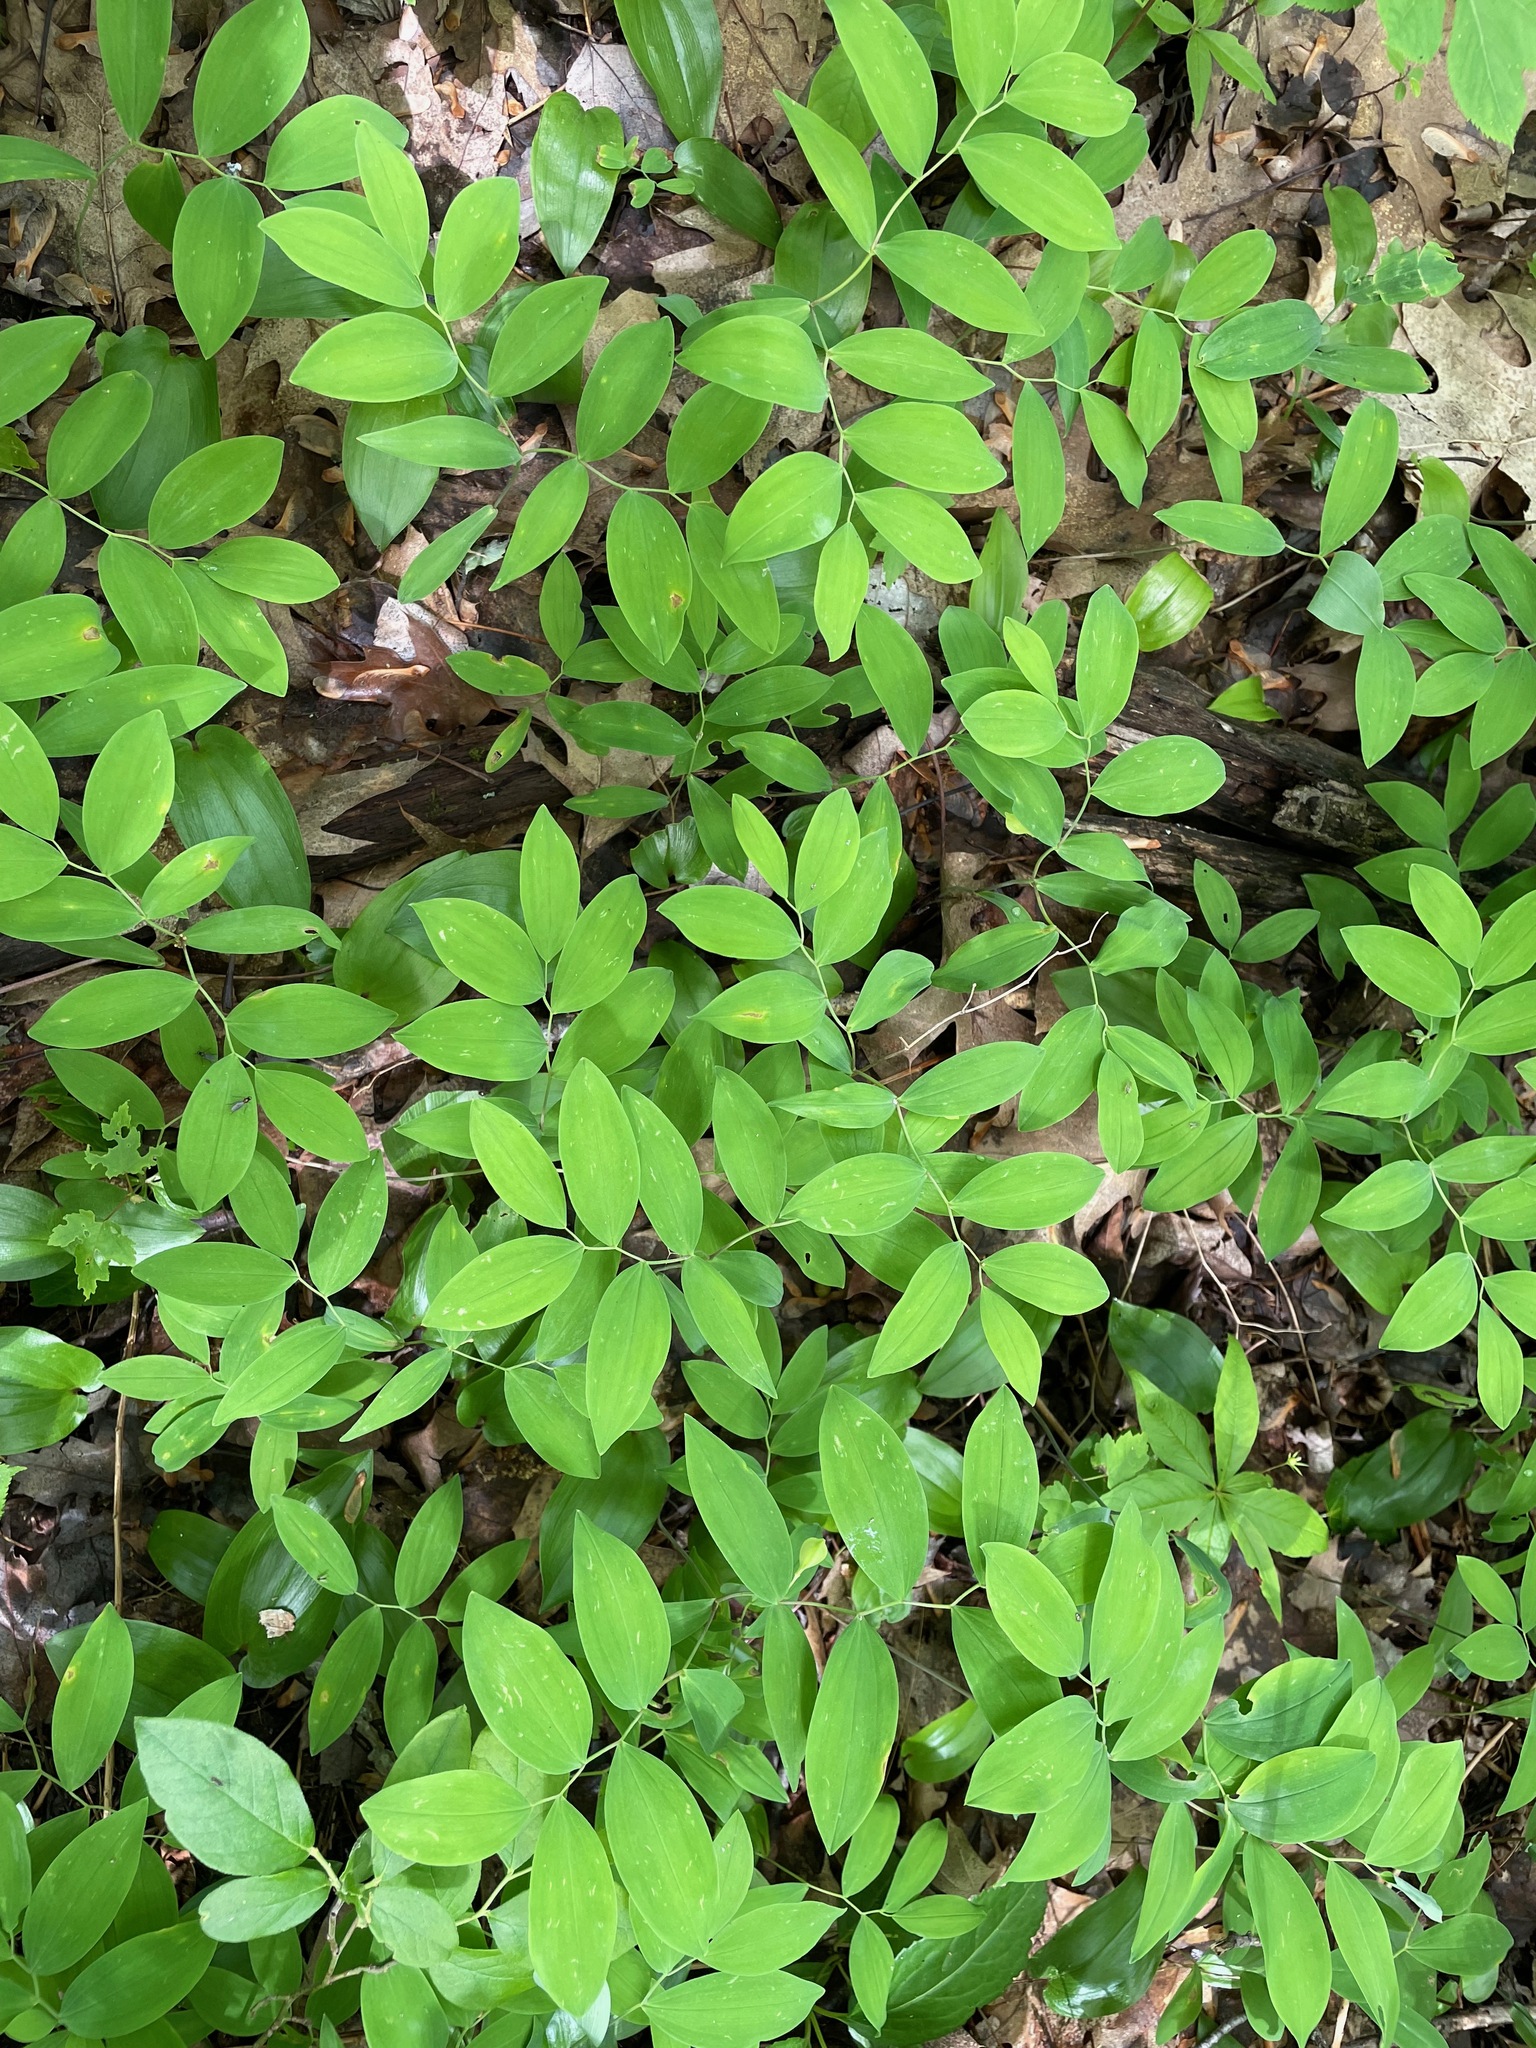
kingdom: Plantae
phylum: Tracheophyta
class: Liliopsida
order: Liliales
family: Colchicaceae
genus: Uvularia
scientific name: Uvularia sessilifolia
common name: Straw-lily
